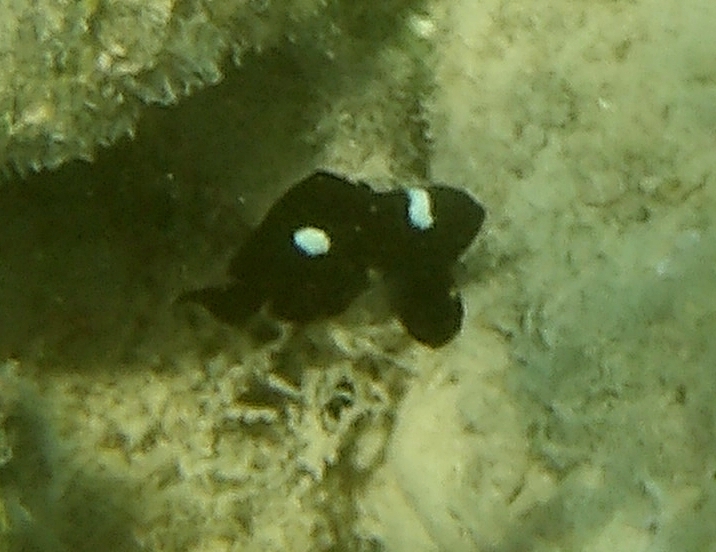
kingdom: Animalia
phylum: Chordata
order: Perciformes
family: Pomacentridae
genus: Dascyllus
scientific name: Dascyllus trimaculatus
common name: Threespot dascyllus
